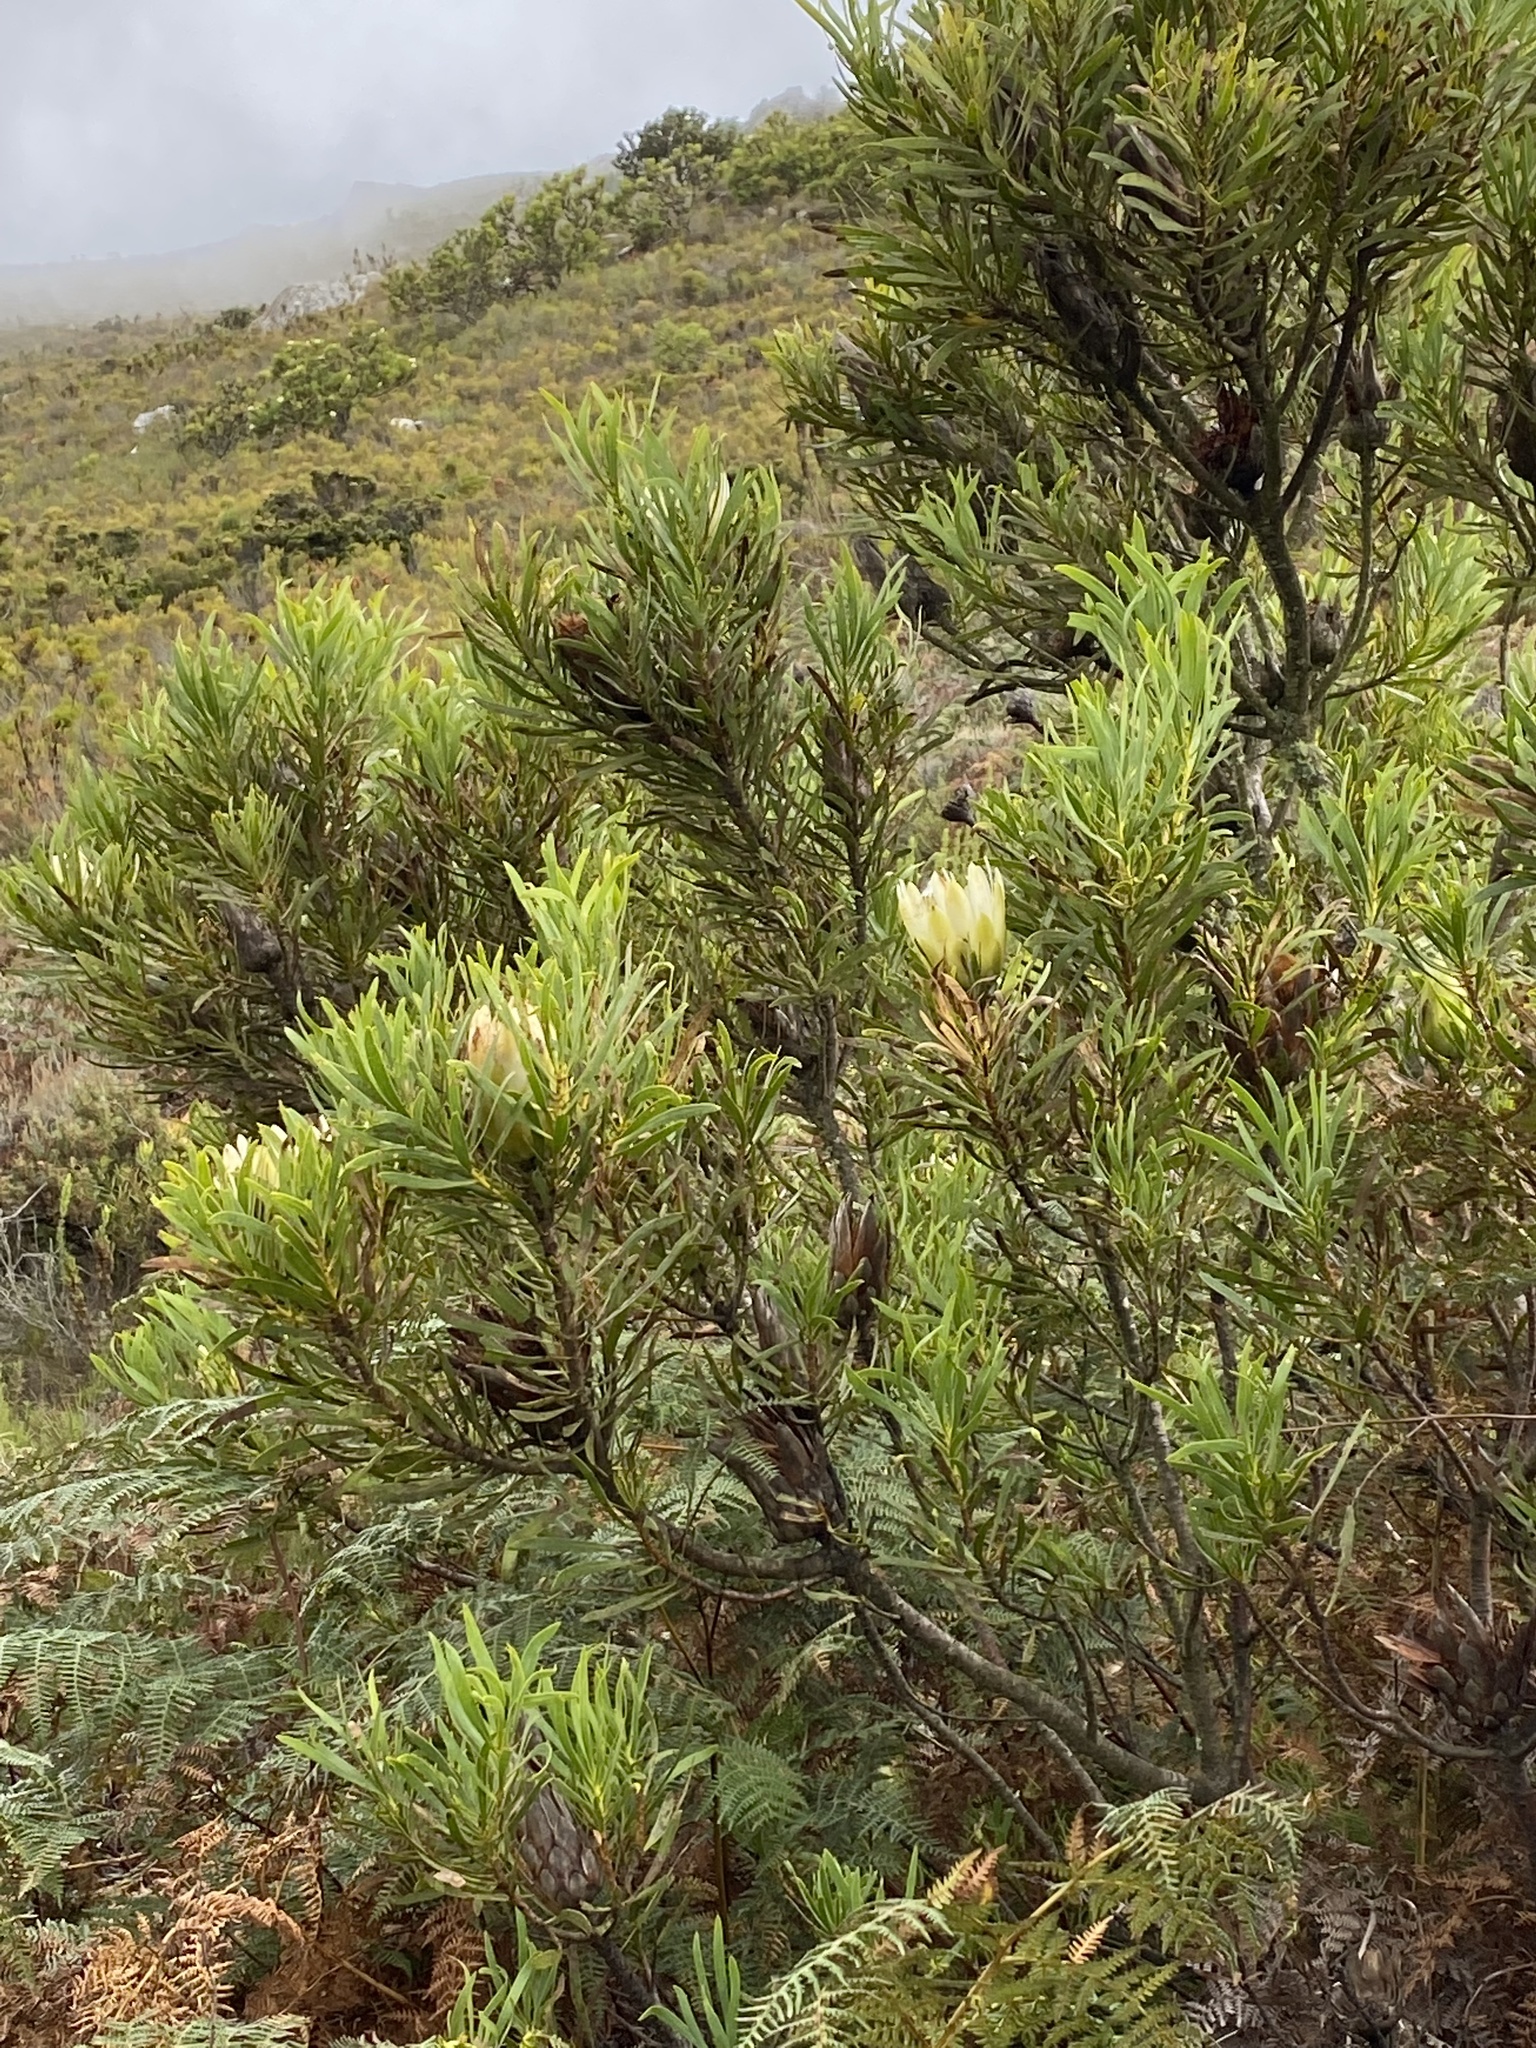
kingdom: Plantae
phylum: Tracheophyta
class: Magnoliopsida
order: Proteales
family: Proteaceae
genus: Protea
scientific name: Protea repens
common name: Sugarbush
